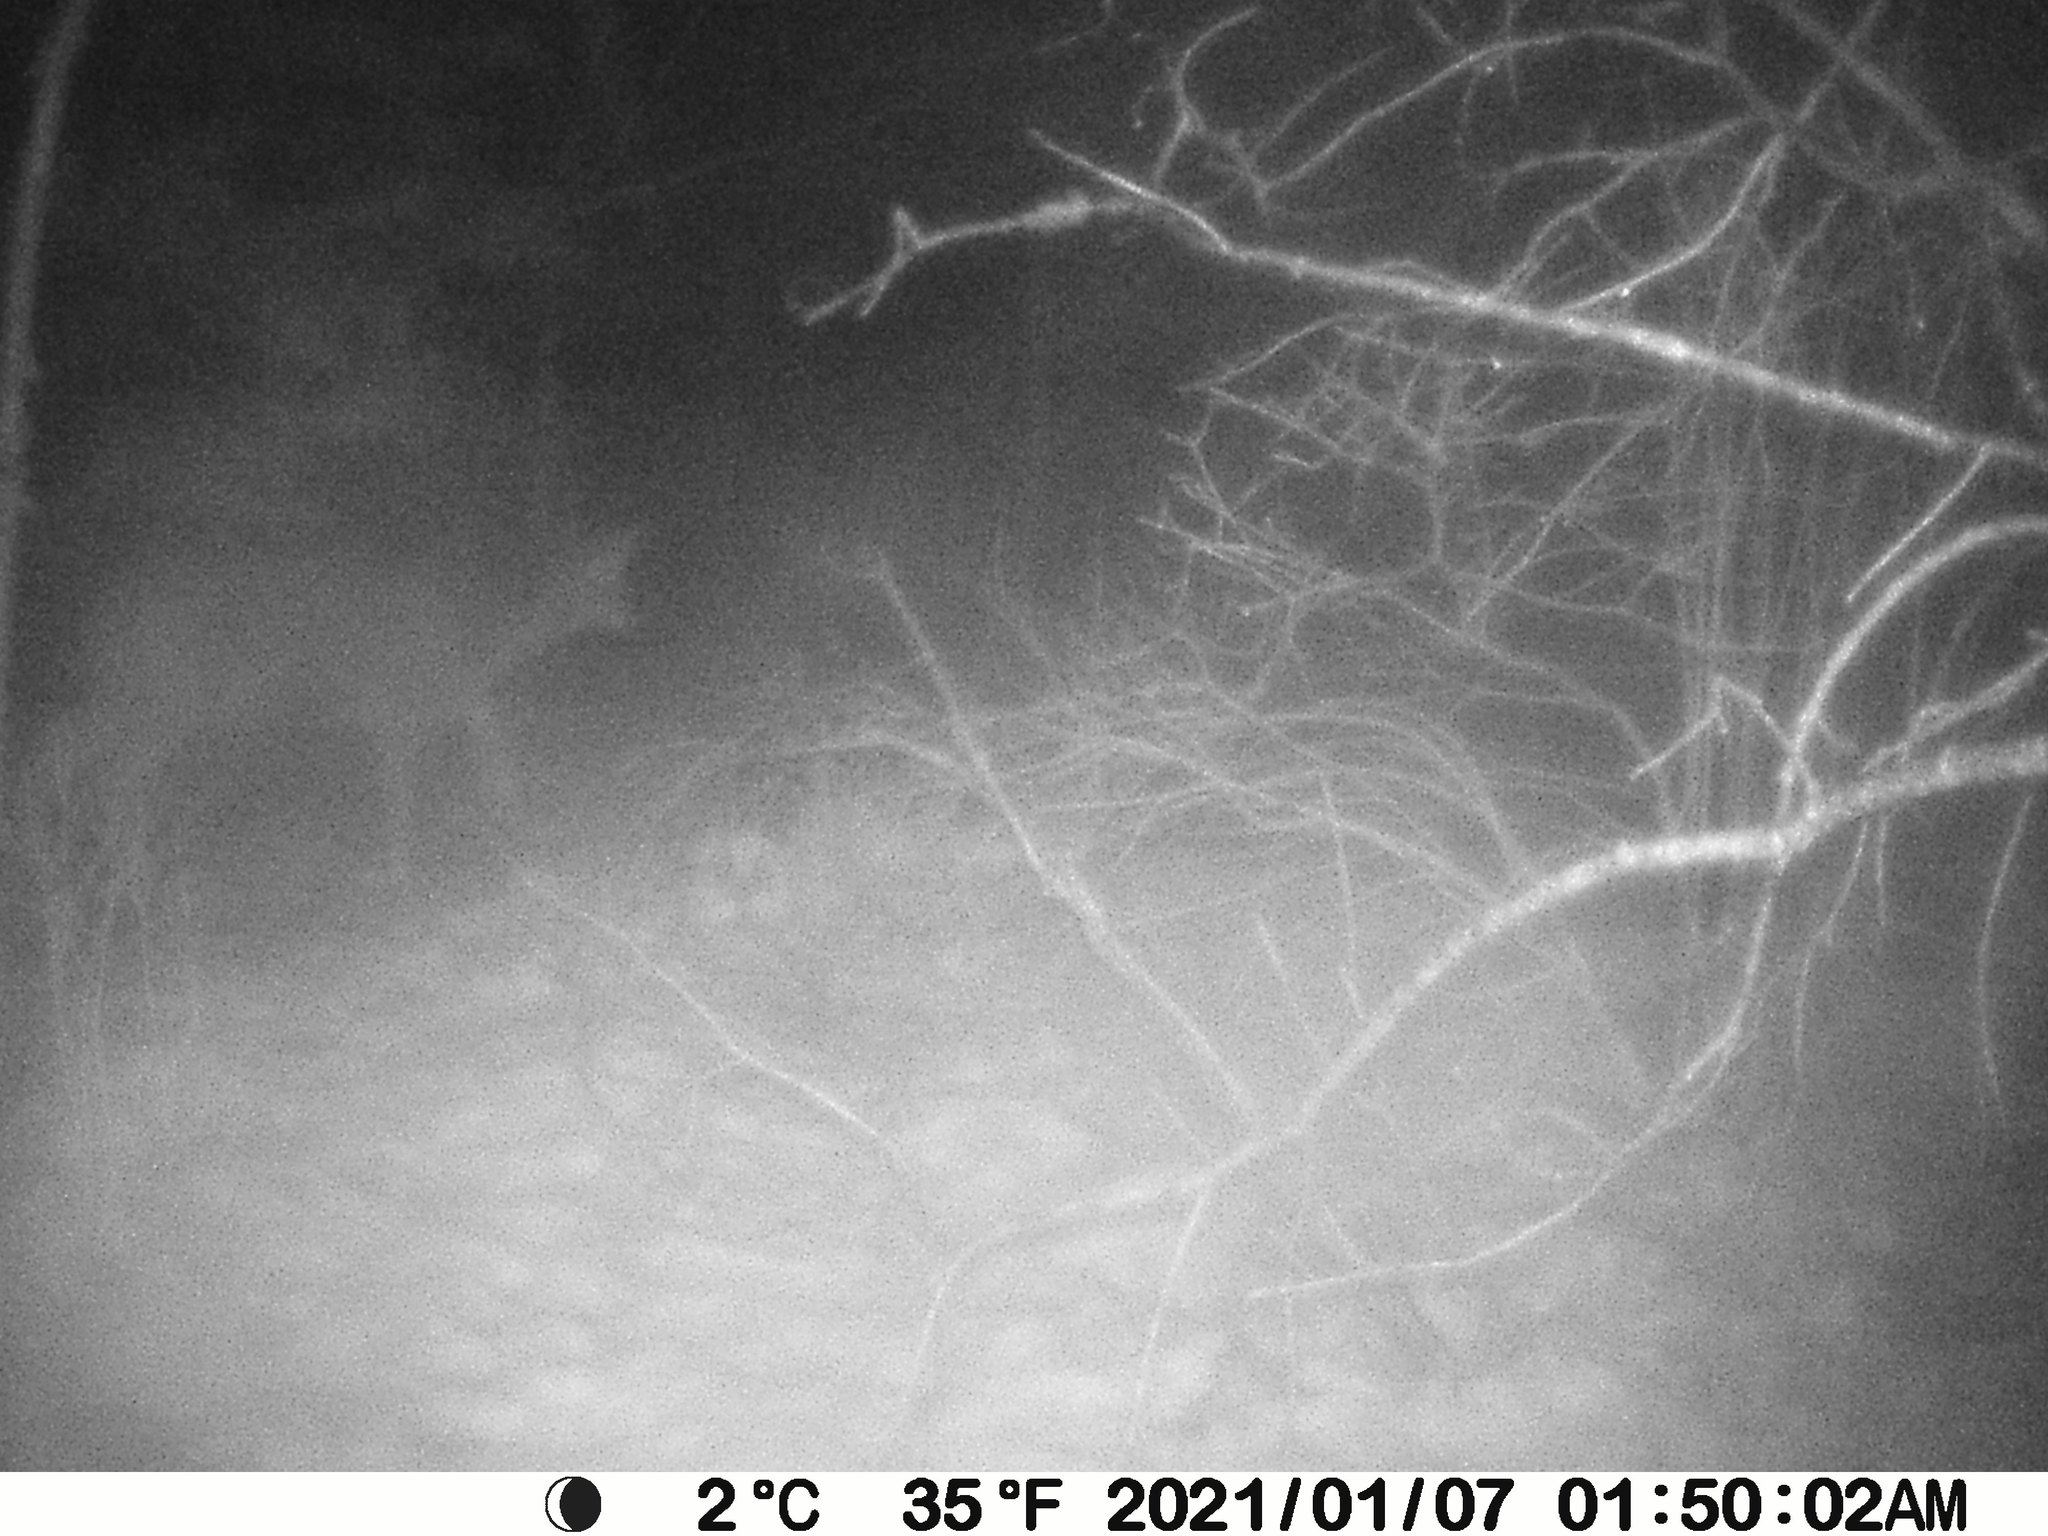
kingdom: Animalia
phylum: Chordata
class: Mammalia
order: Artiodactyla
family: Cervidae
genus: Odocoileus
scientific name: Odocoileus virginianus
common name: White-tailed deer
